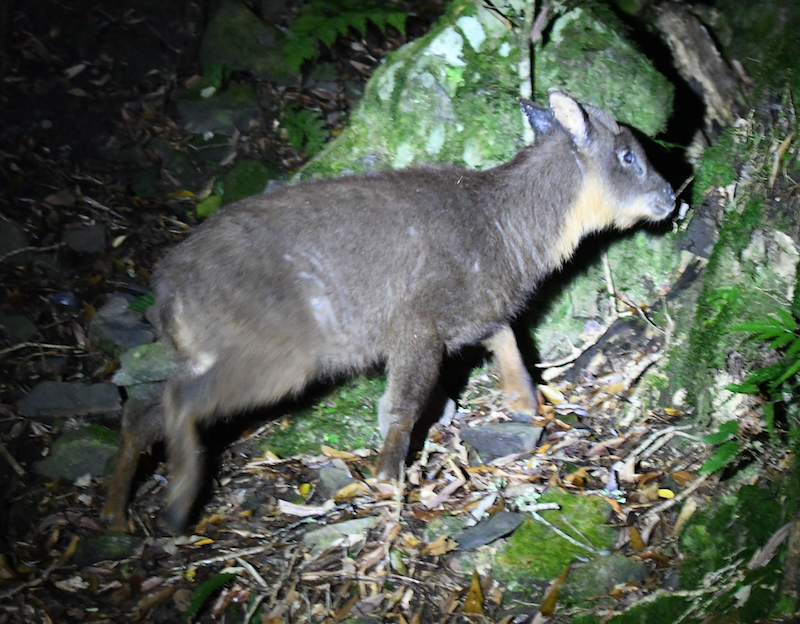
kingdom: Animalia
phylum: Chordata
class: Mammalia
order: Artiodactyla
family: Bovidae
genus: Capricornis
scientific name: Capricornis swinhoei
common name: Formosan serow
